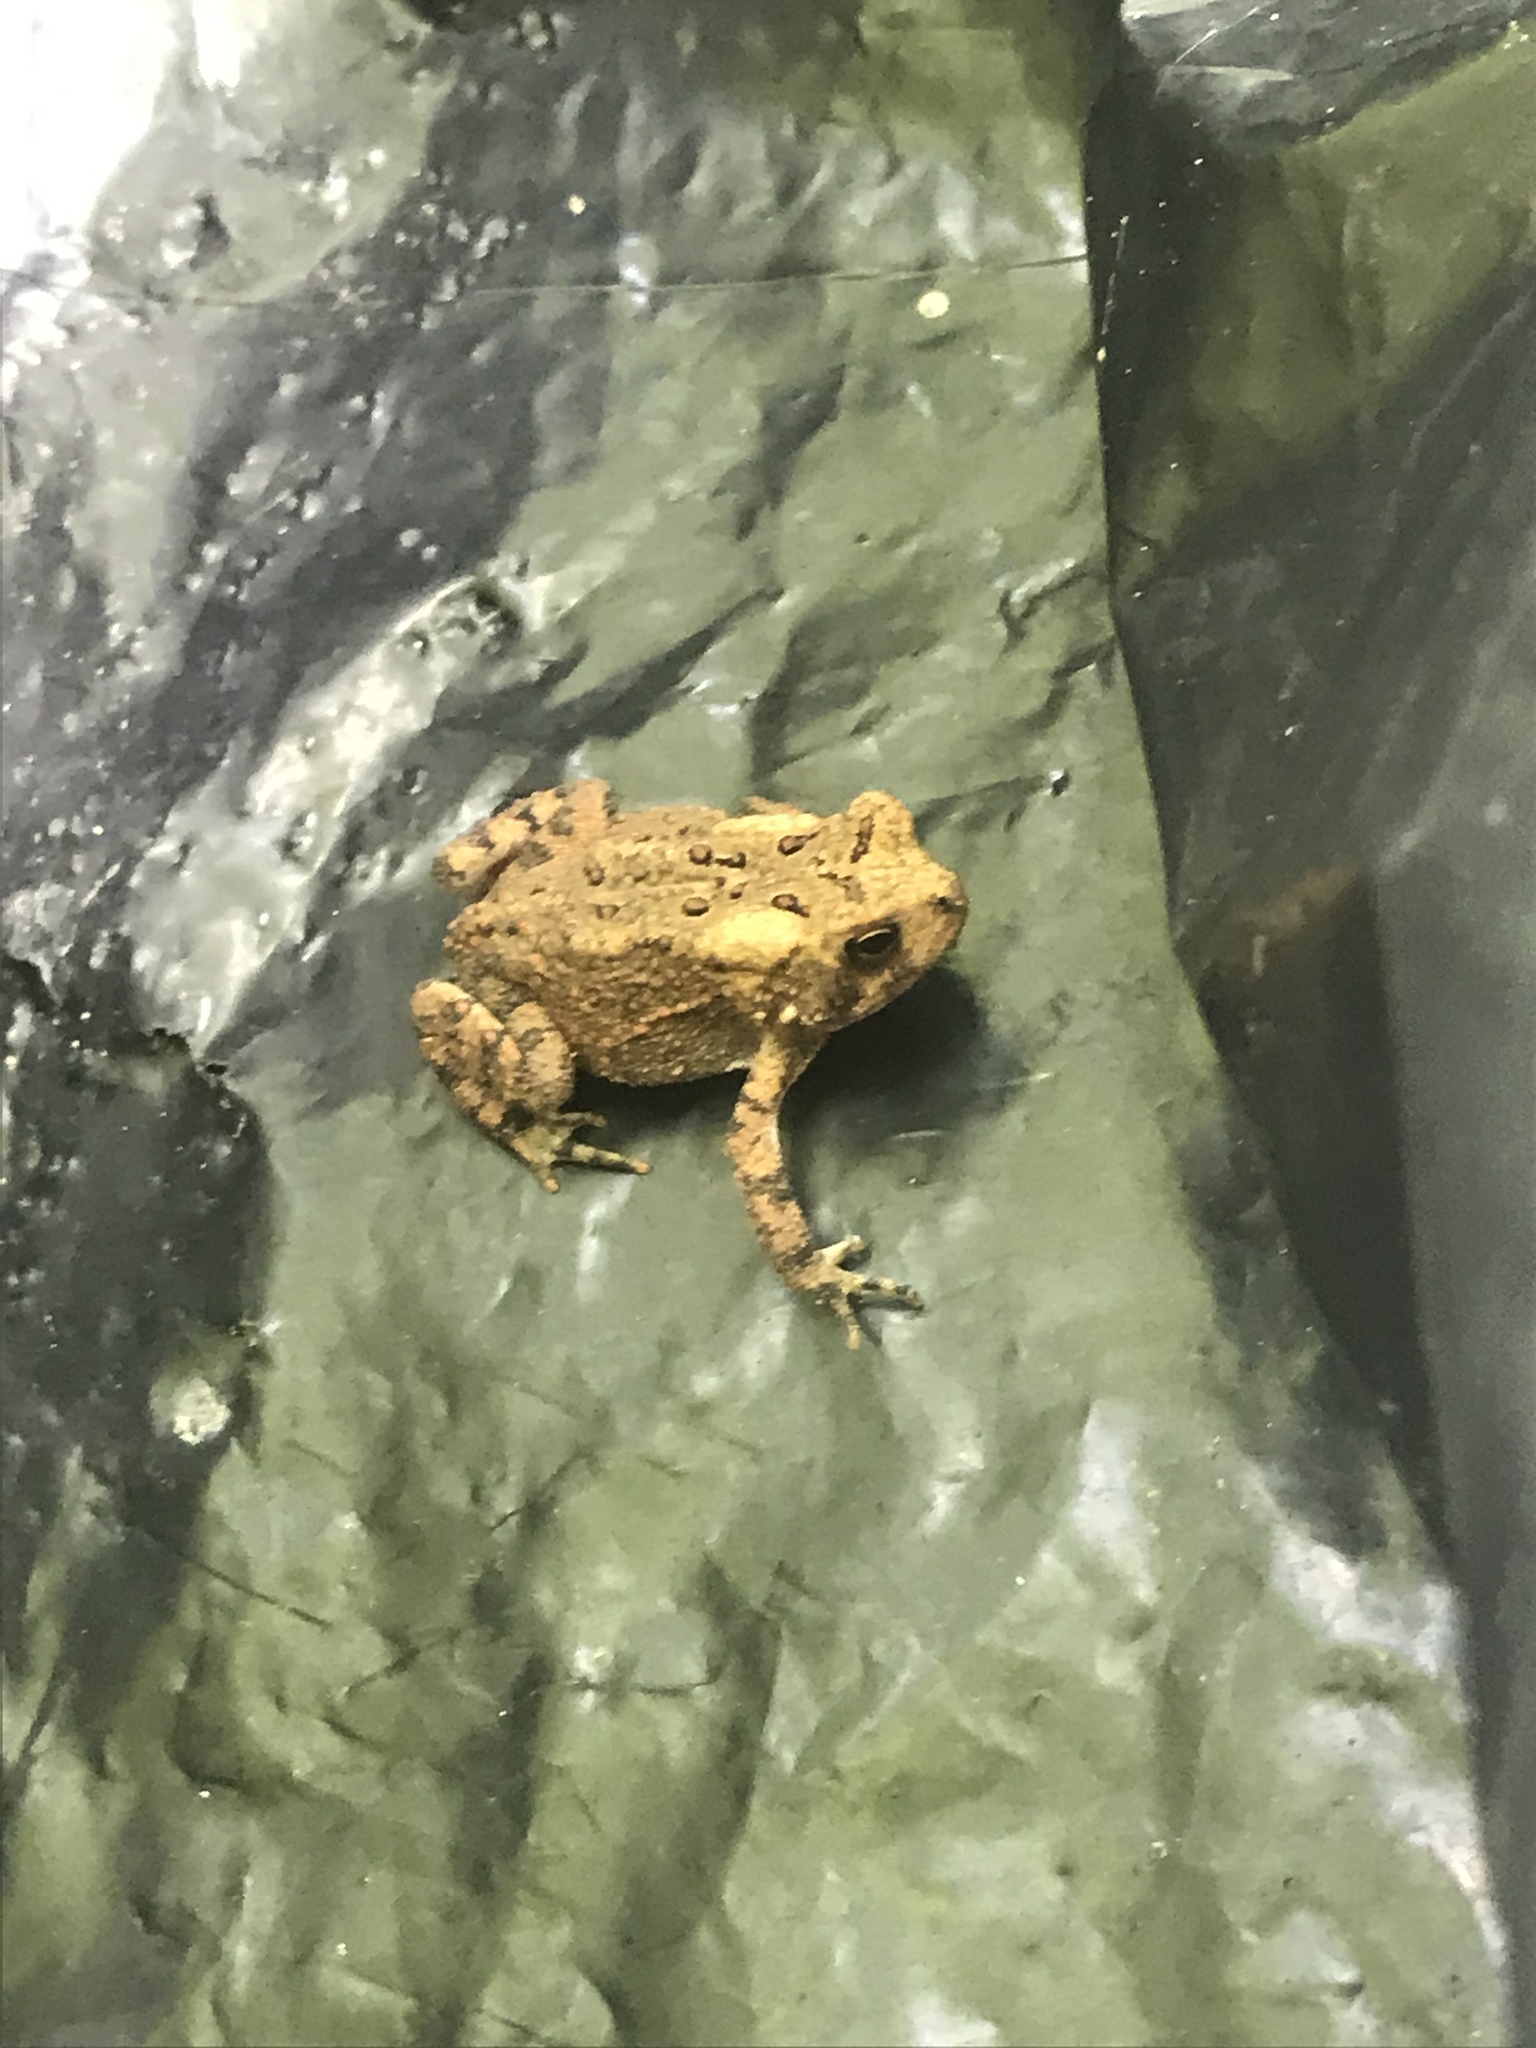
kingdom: Animalia
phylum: Chordata
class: Amphibia
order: Anura
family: Bufonidae
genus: Anaxyrus
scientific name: Anaxyrus americanus
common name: American toad
